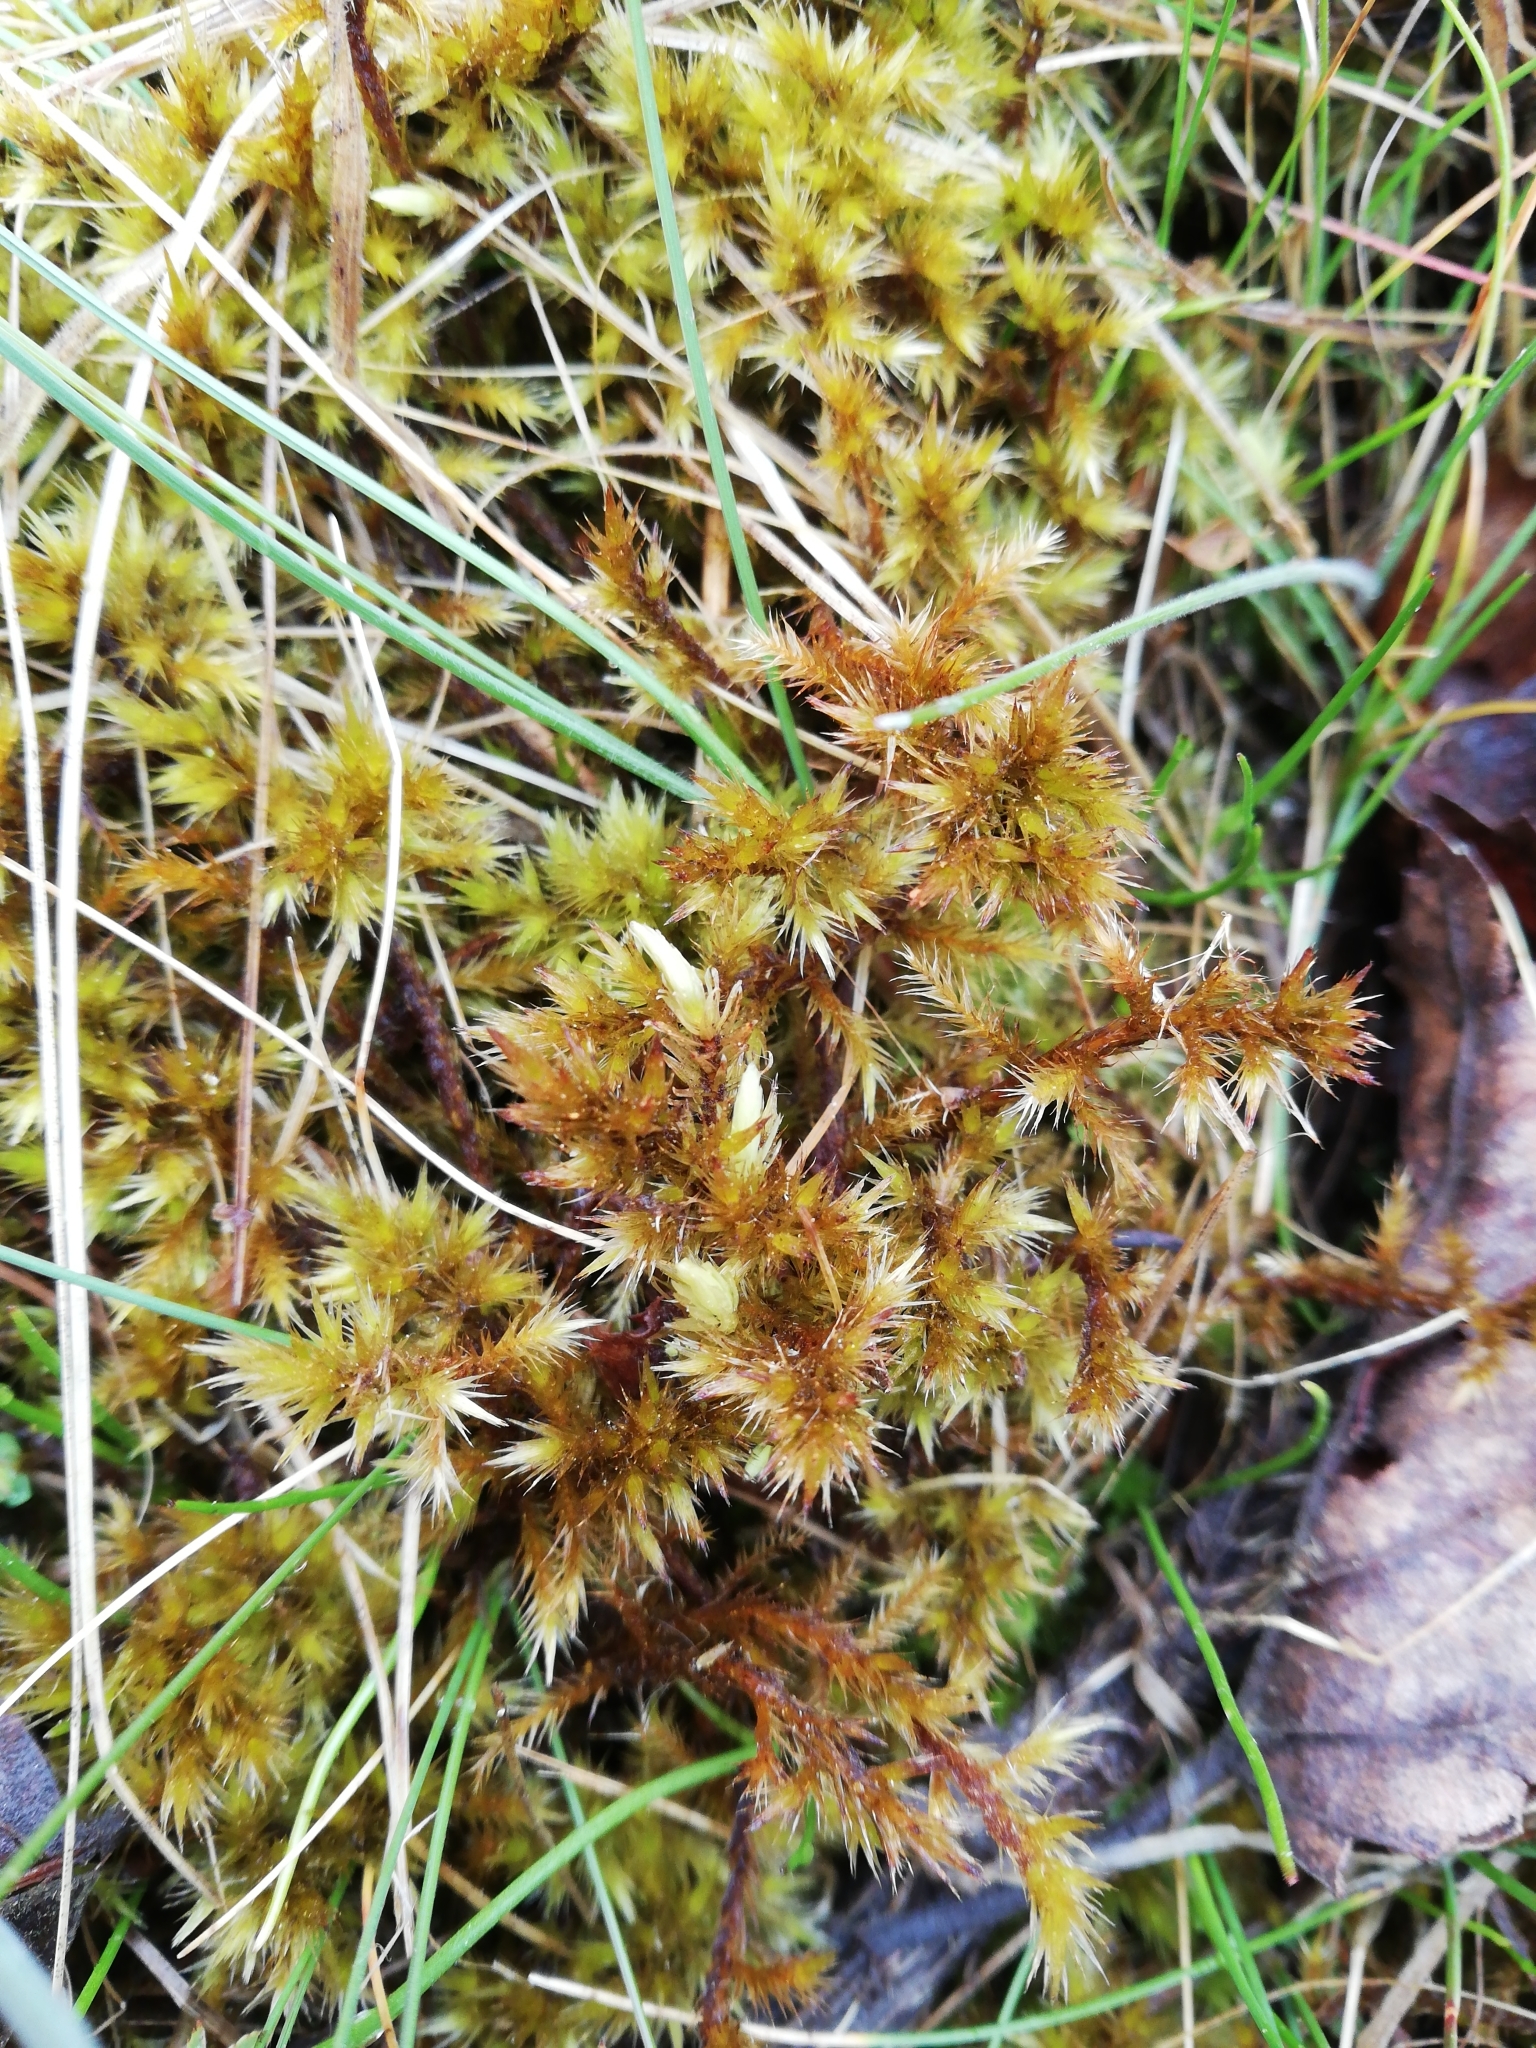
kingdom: Plantae
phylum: Bryophyta
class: Bryopsida
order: Hypnales
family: Amblystegiaceae
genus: Tomentypnum
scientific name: Tomentypnum nitens
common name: Golden fuzzy fen moss
